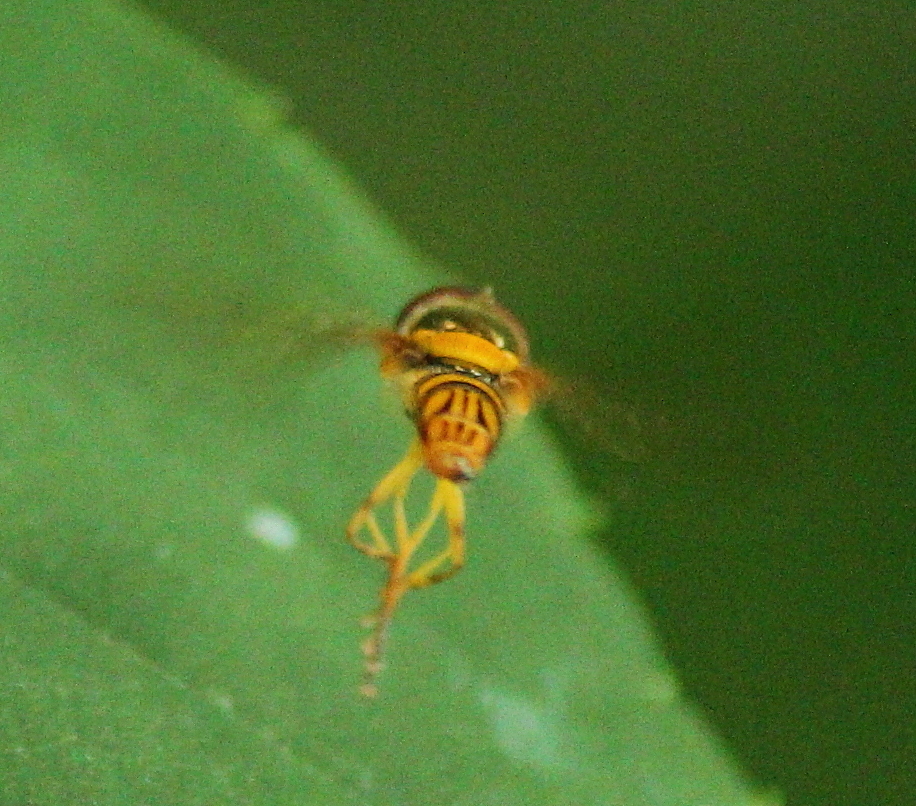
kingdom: Animalia
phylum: Arthropoda
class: Insecta
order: Diptera
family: Syrphidae
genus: Allograpta
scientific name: Allograpta obliqua
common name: Common oblique syrphid
